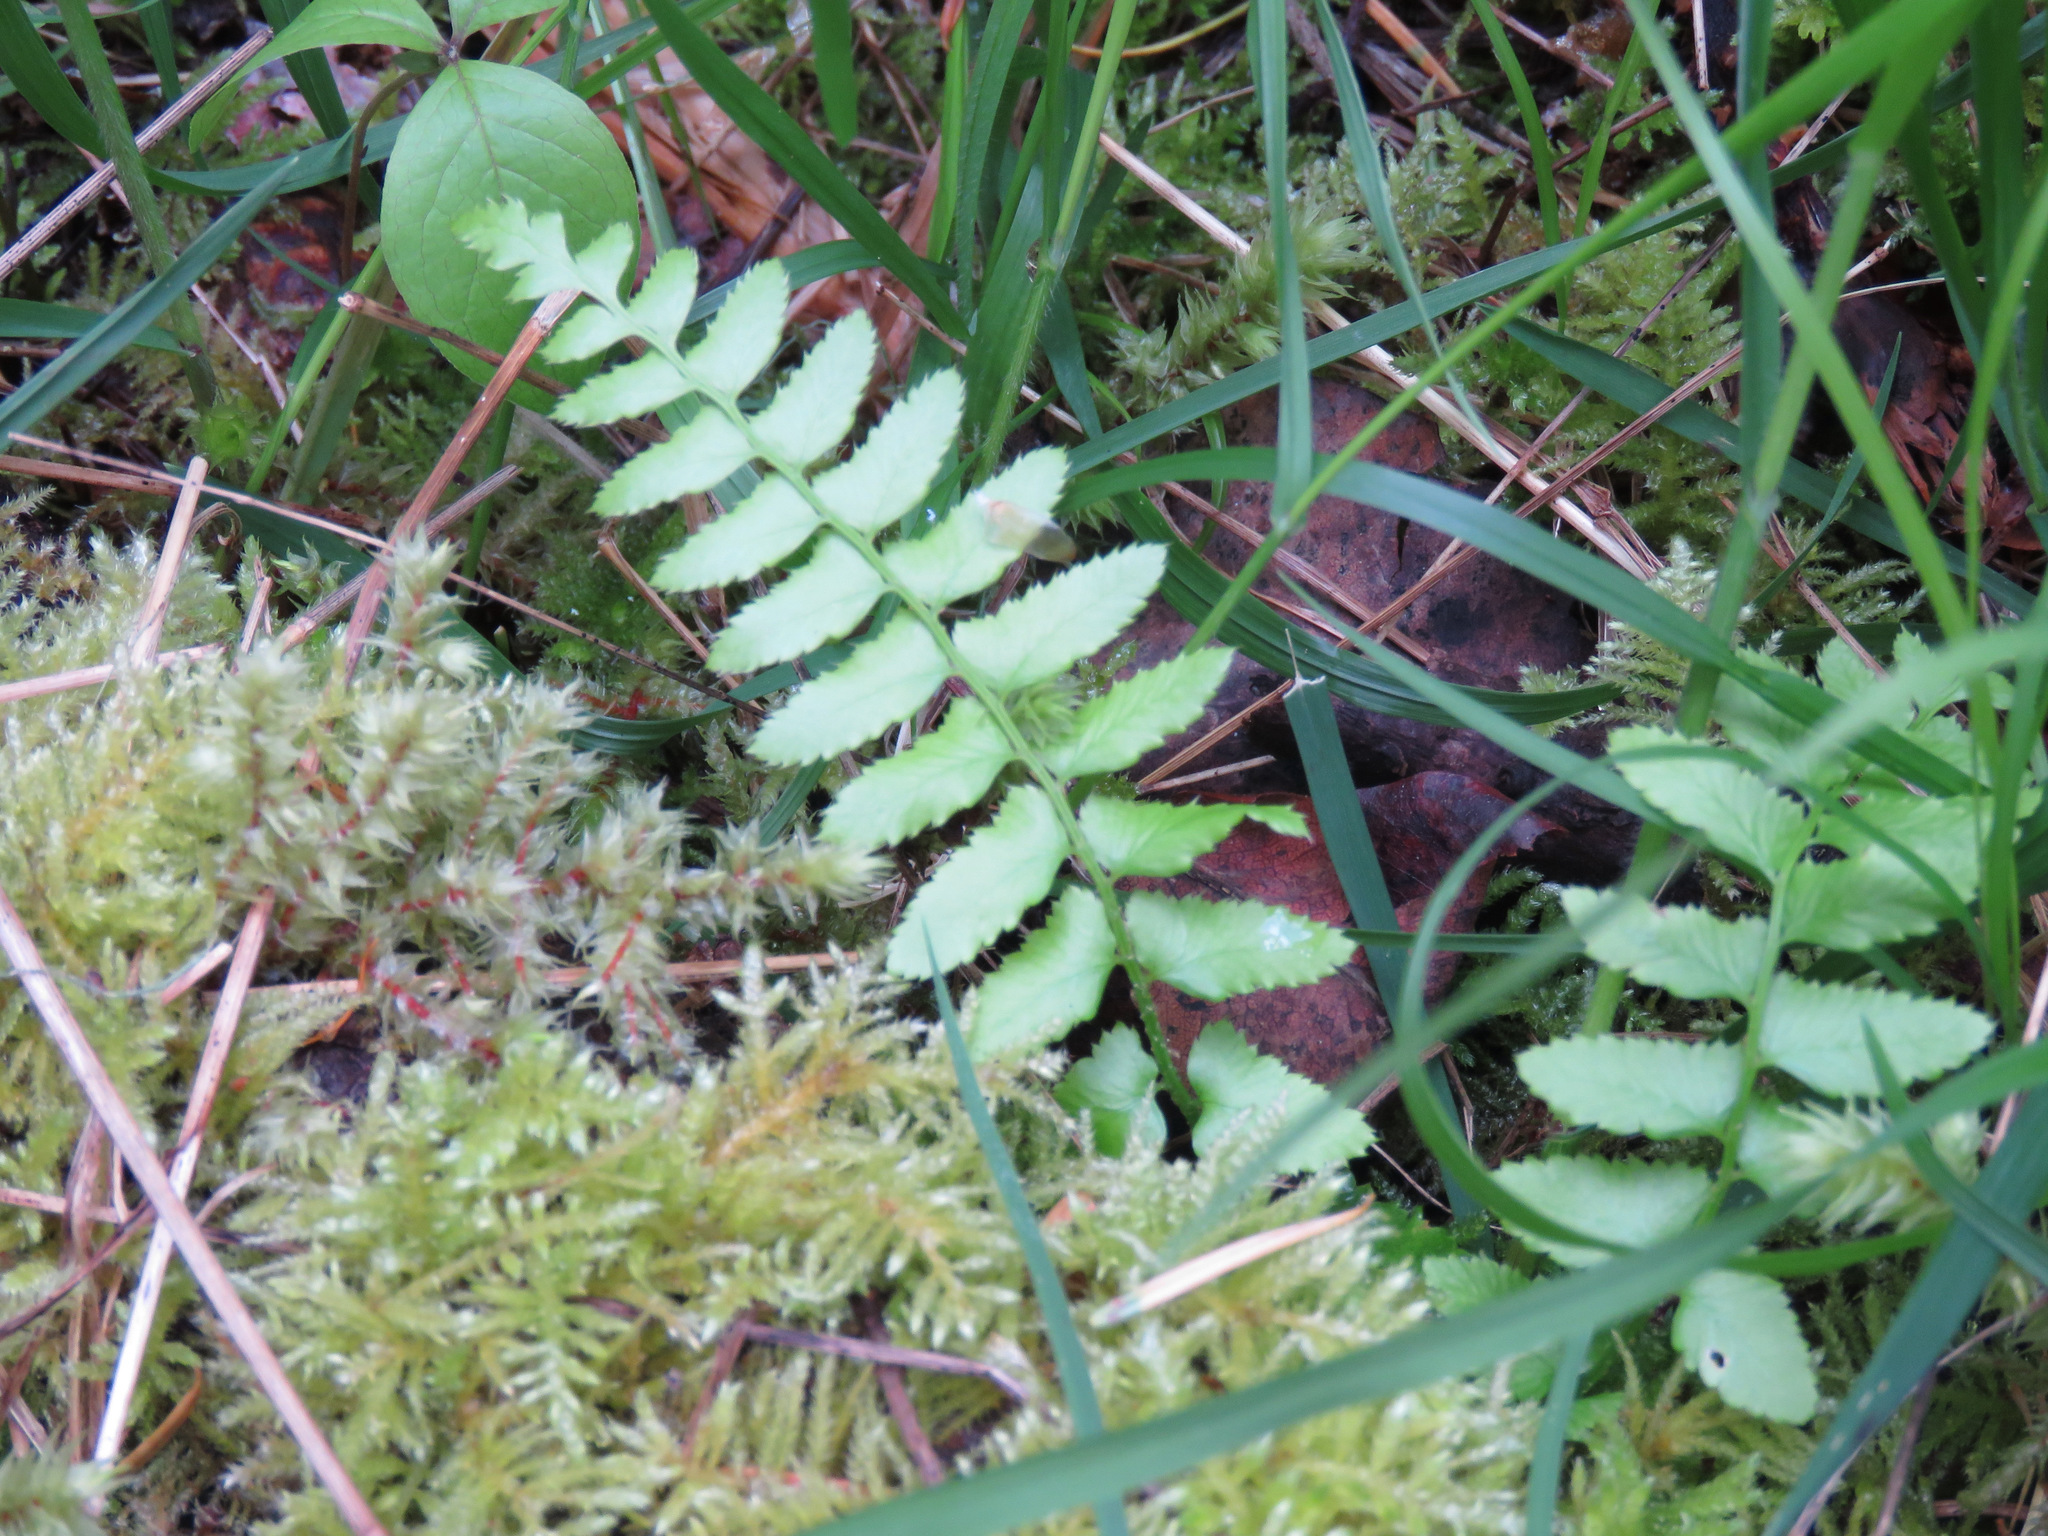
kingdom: Plantae
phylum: Tracheophyta
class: Polypodiopsida
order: Polypodiales
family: Dryopteridaceae
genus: Polystichum
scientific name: Polystichum munitum
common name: Western sword-fern
